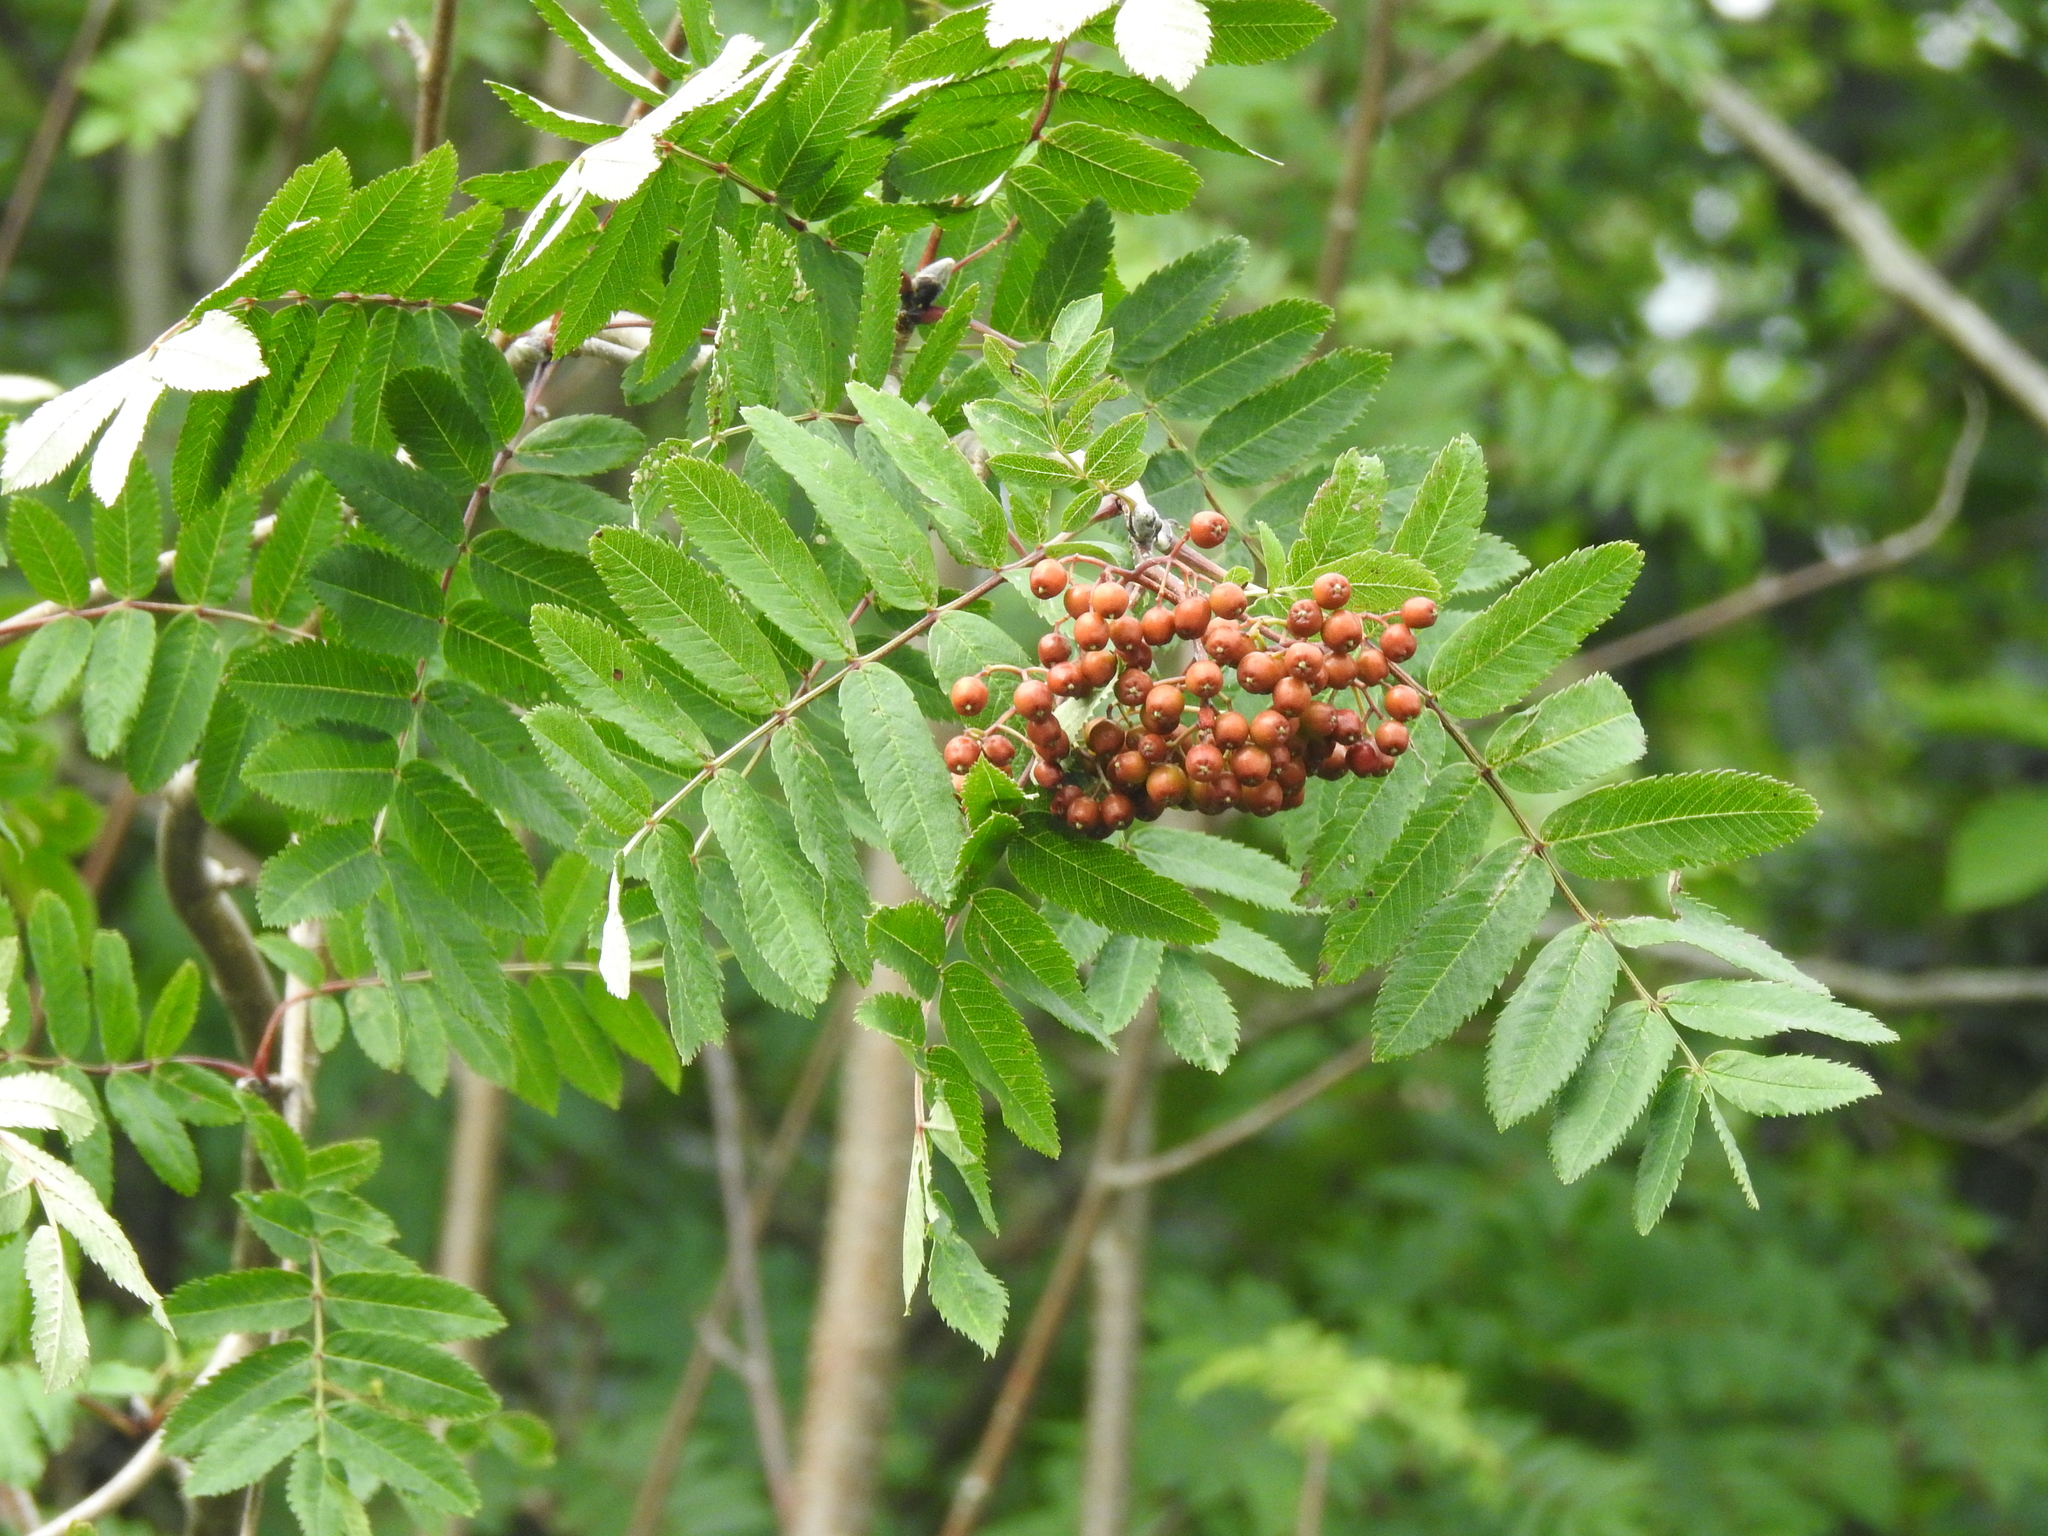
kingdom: Plantae
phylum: Tracheophyta
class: Magnoliopsida
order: Rosales
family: Rosaceae
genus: Sorbus
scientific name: Sorbus aucuparia
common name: Rowan
